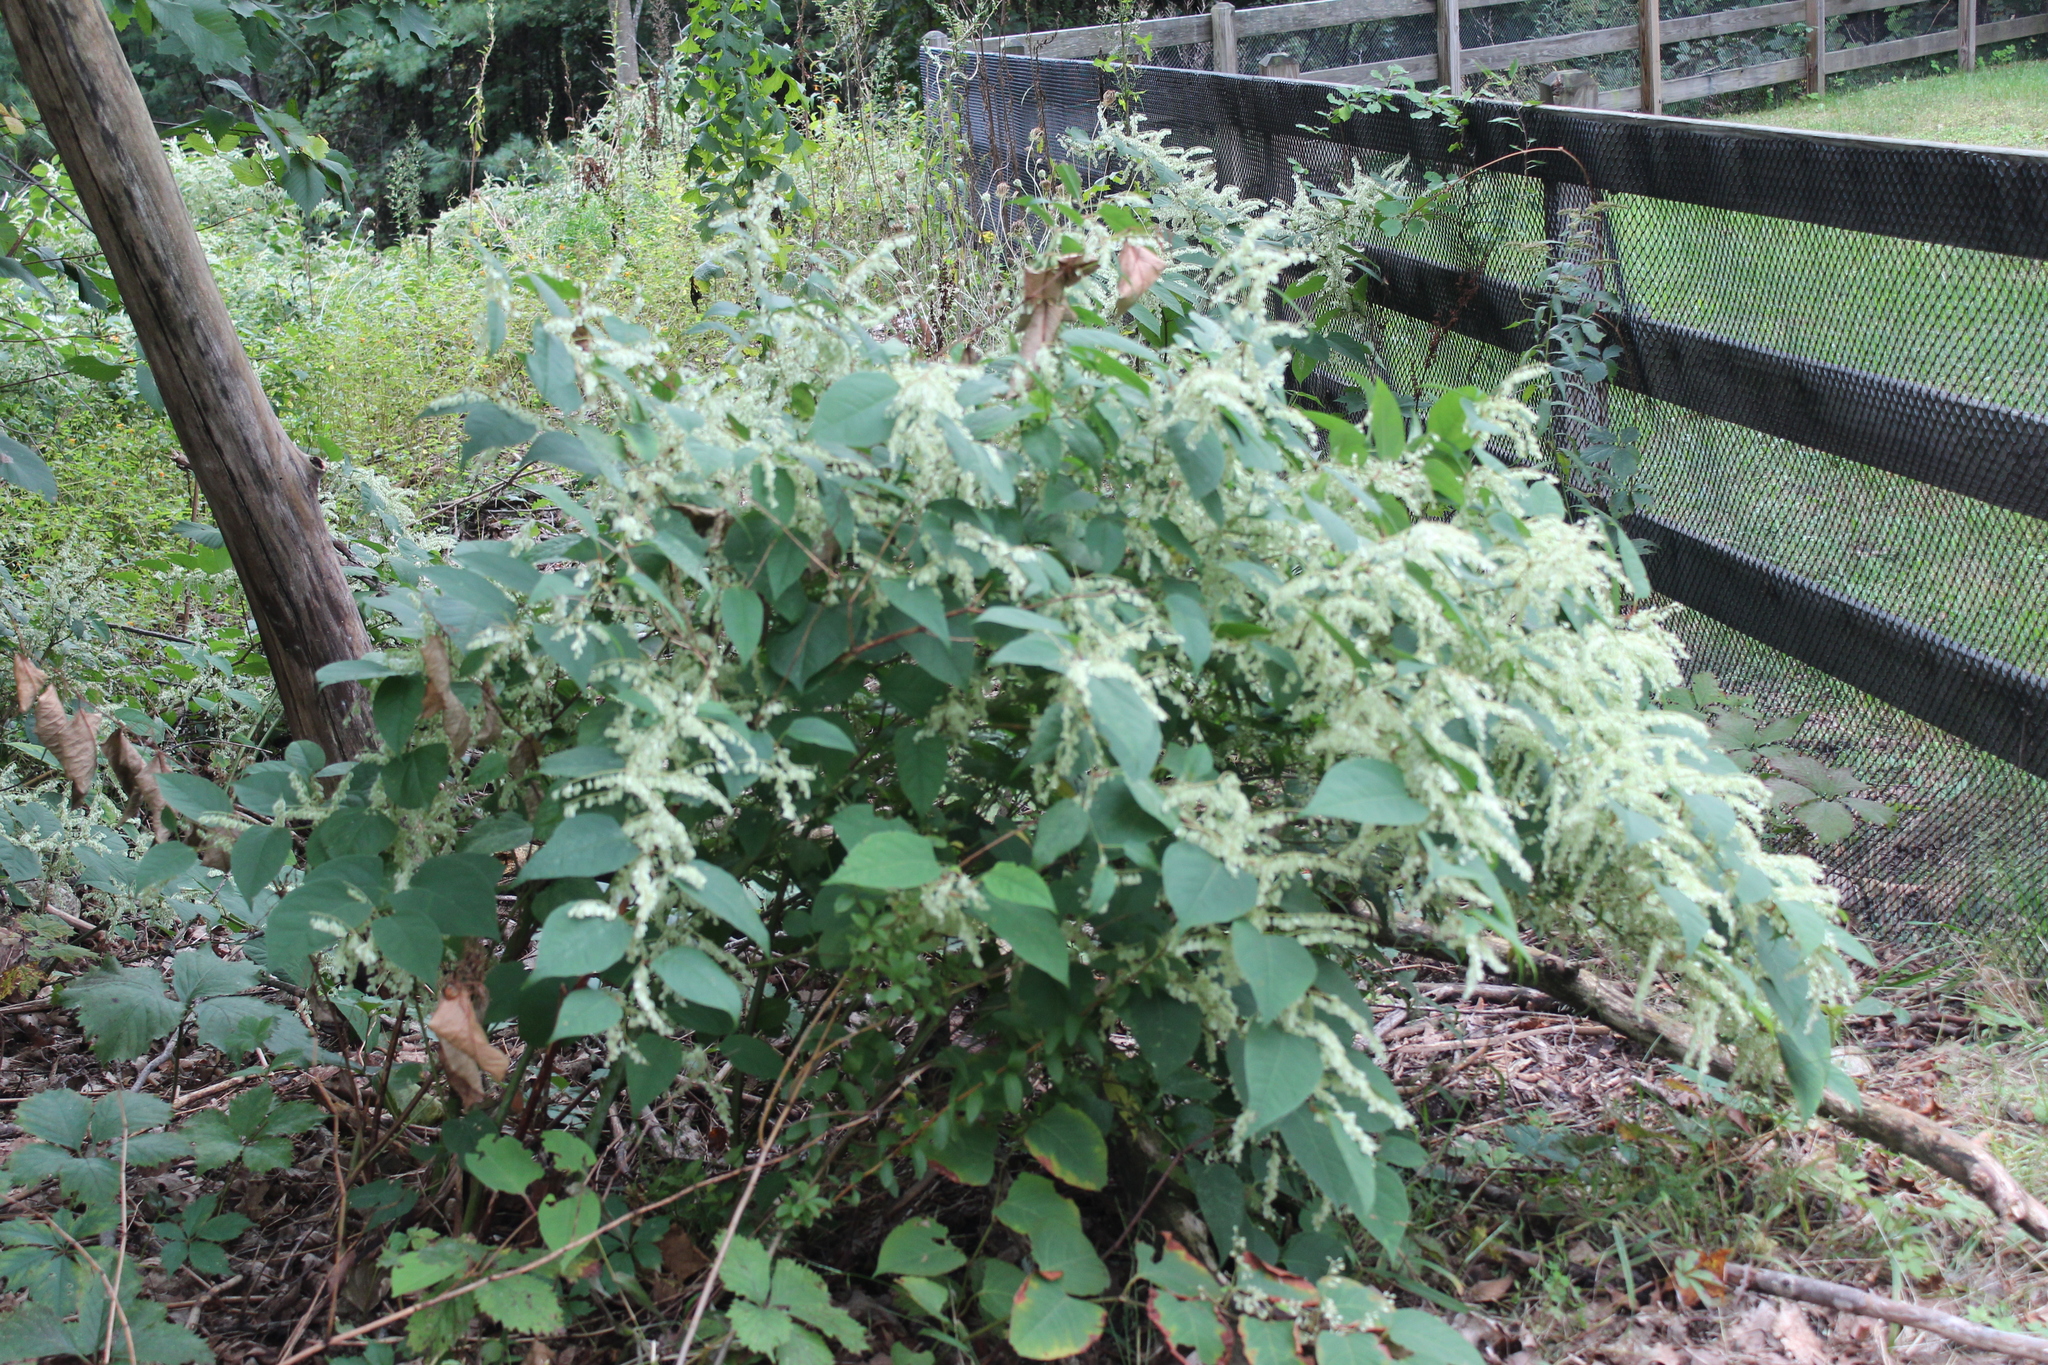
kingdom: Plantae
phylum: Tracheophyta
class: Magnoliopsida
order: Caryophyllales
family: Polygonaceae
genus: Reynoutria
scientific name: Reynoutria japonica
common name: Japanese knotweed
